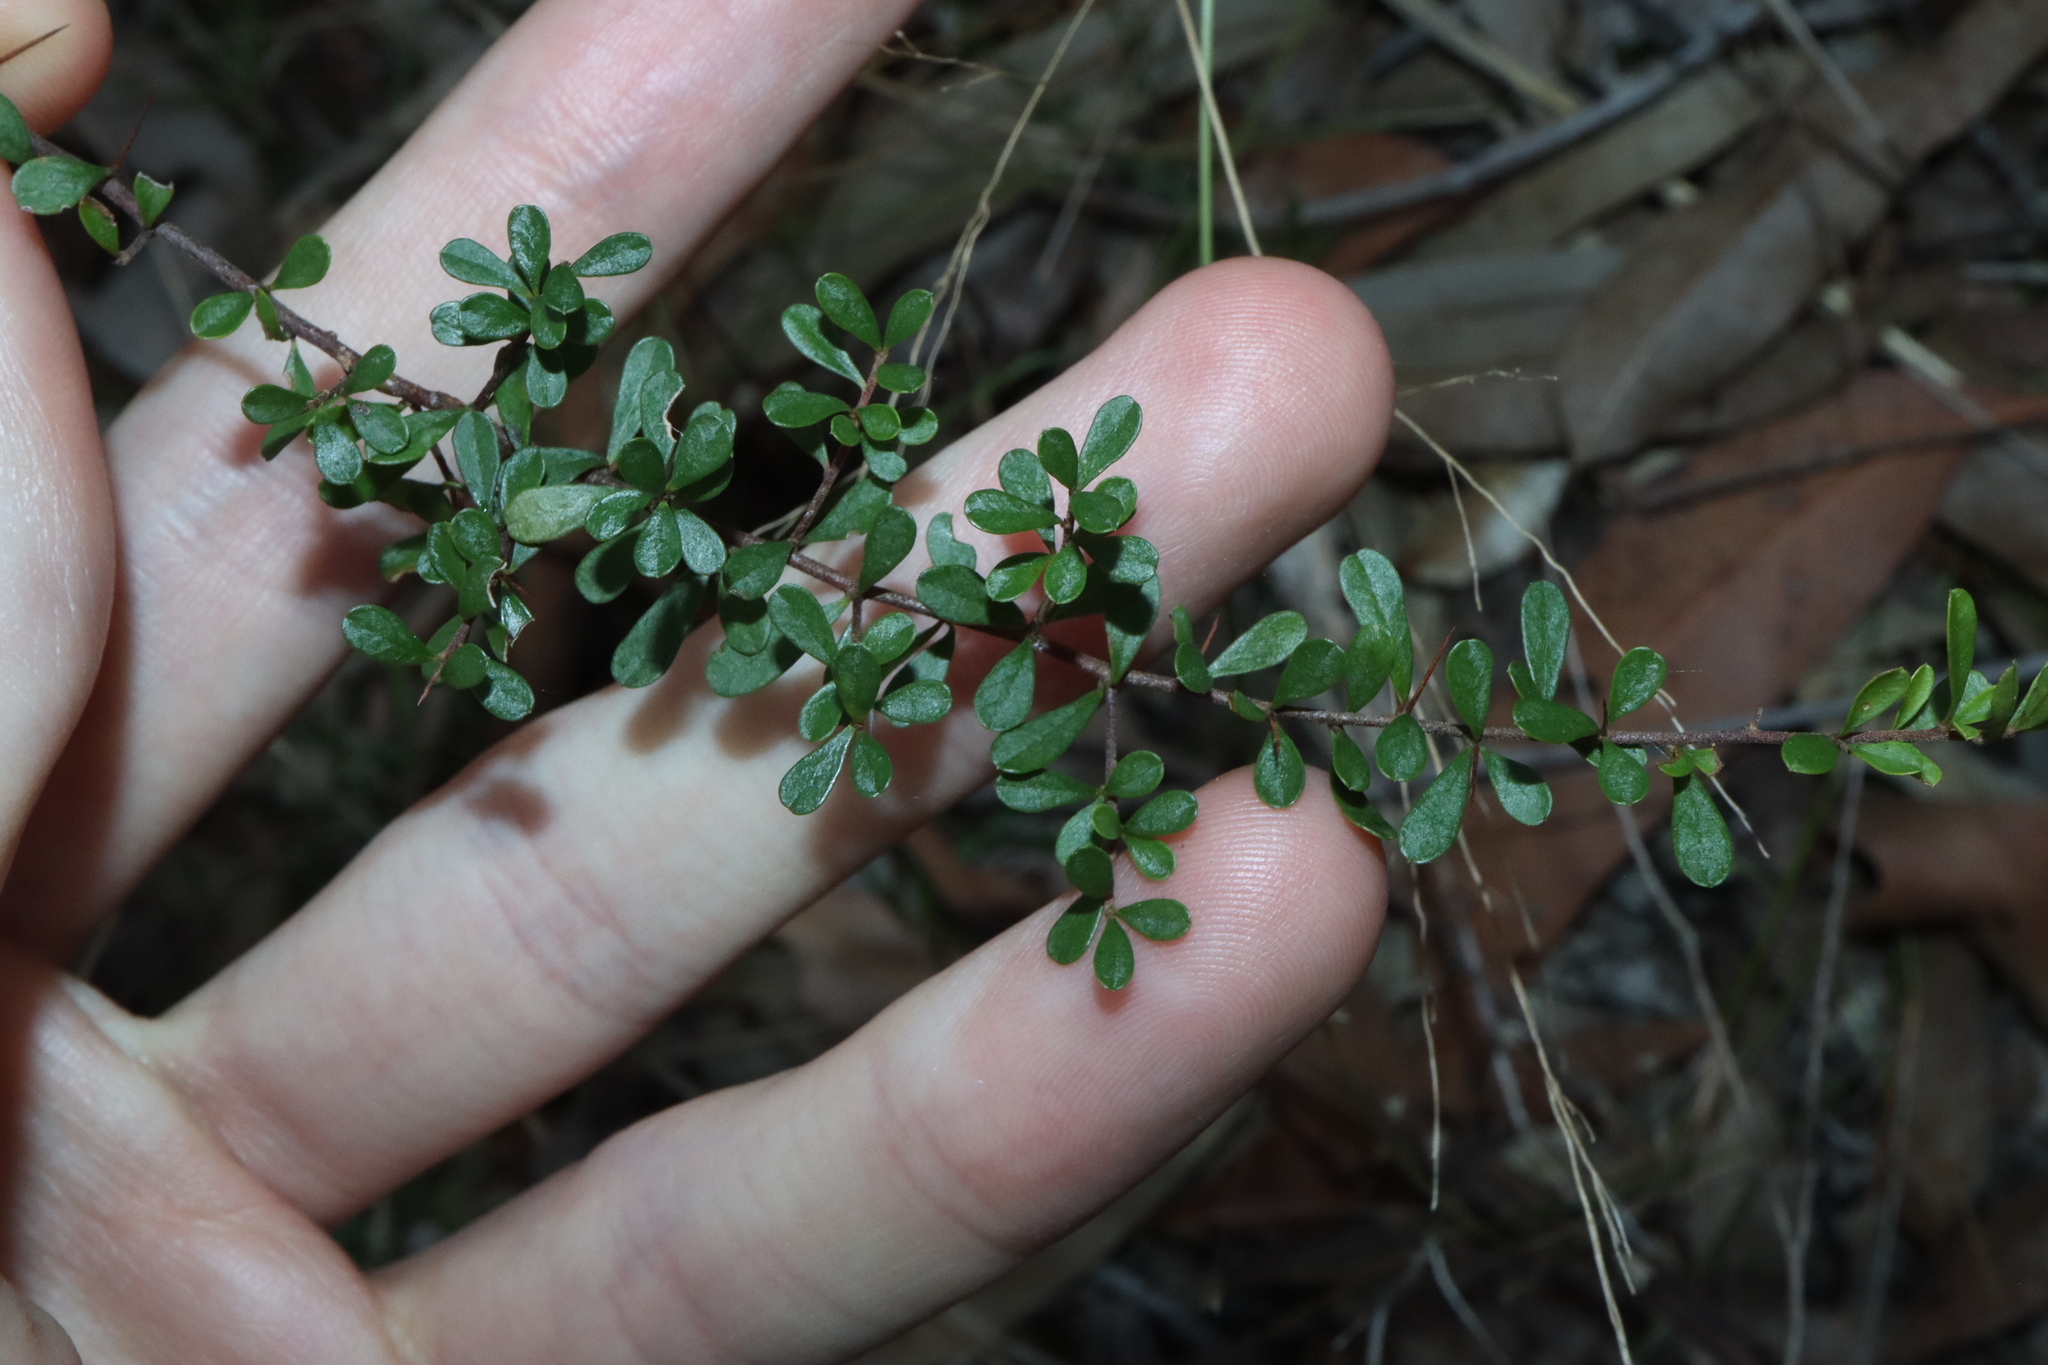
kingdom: Plantae
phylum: Tracheophyta
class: Magnoliopsida
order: Apiales
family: Pittosporaceae
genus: Bursaria
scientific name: Bursaria spinosa
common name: Australian blackthorn
